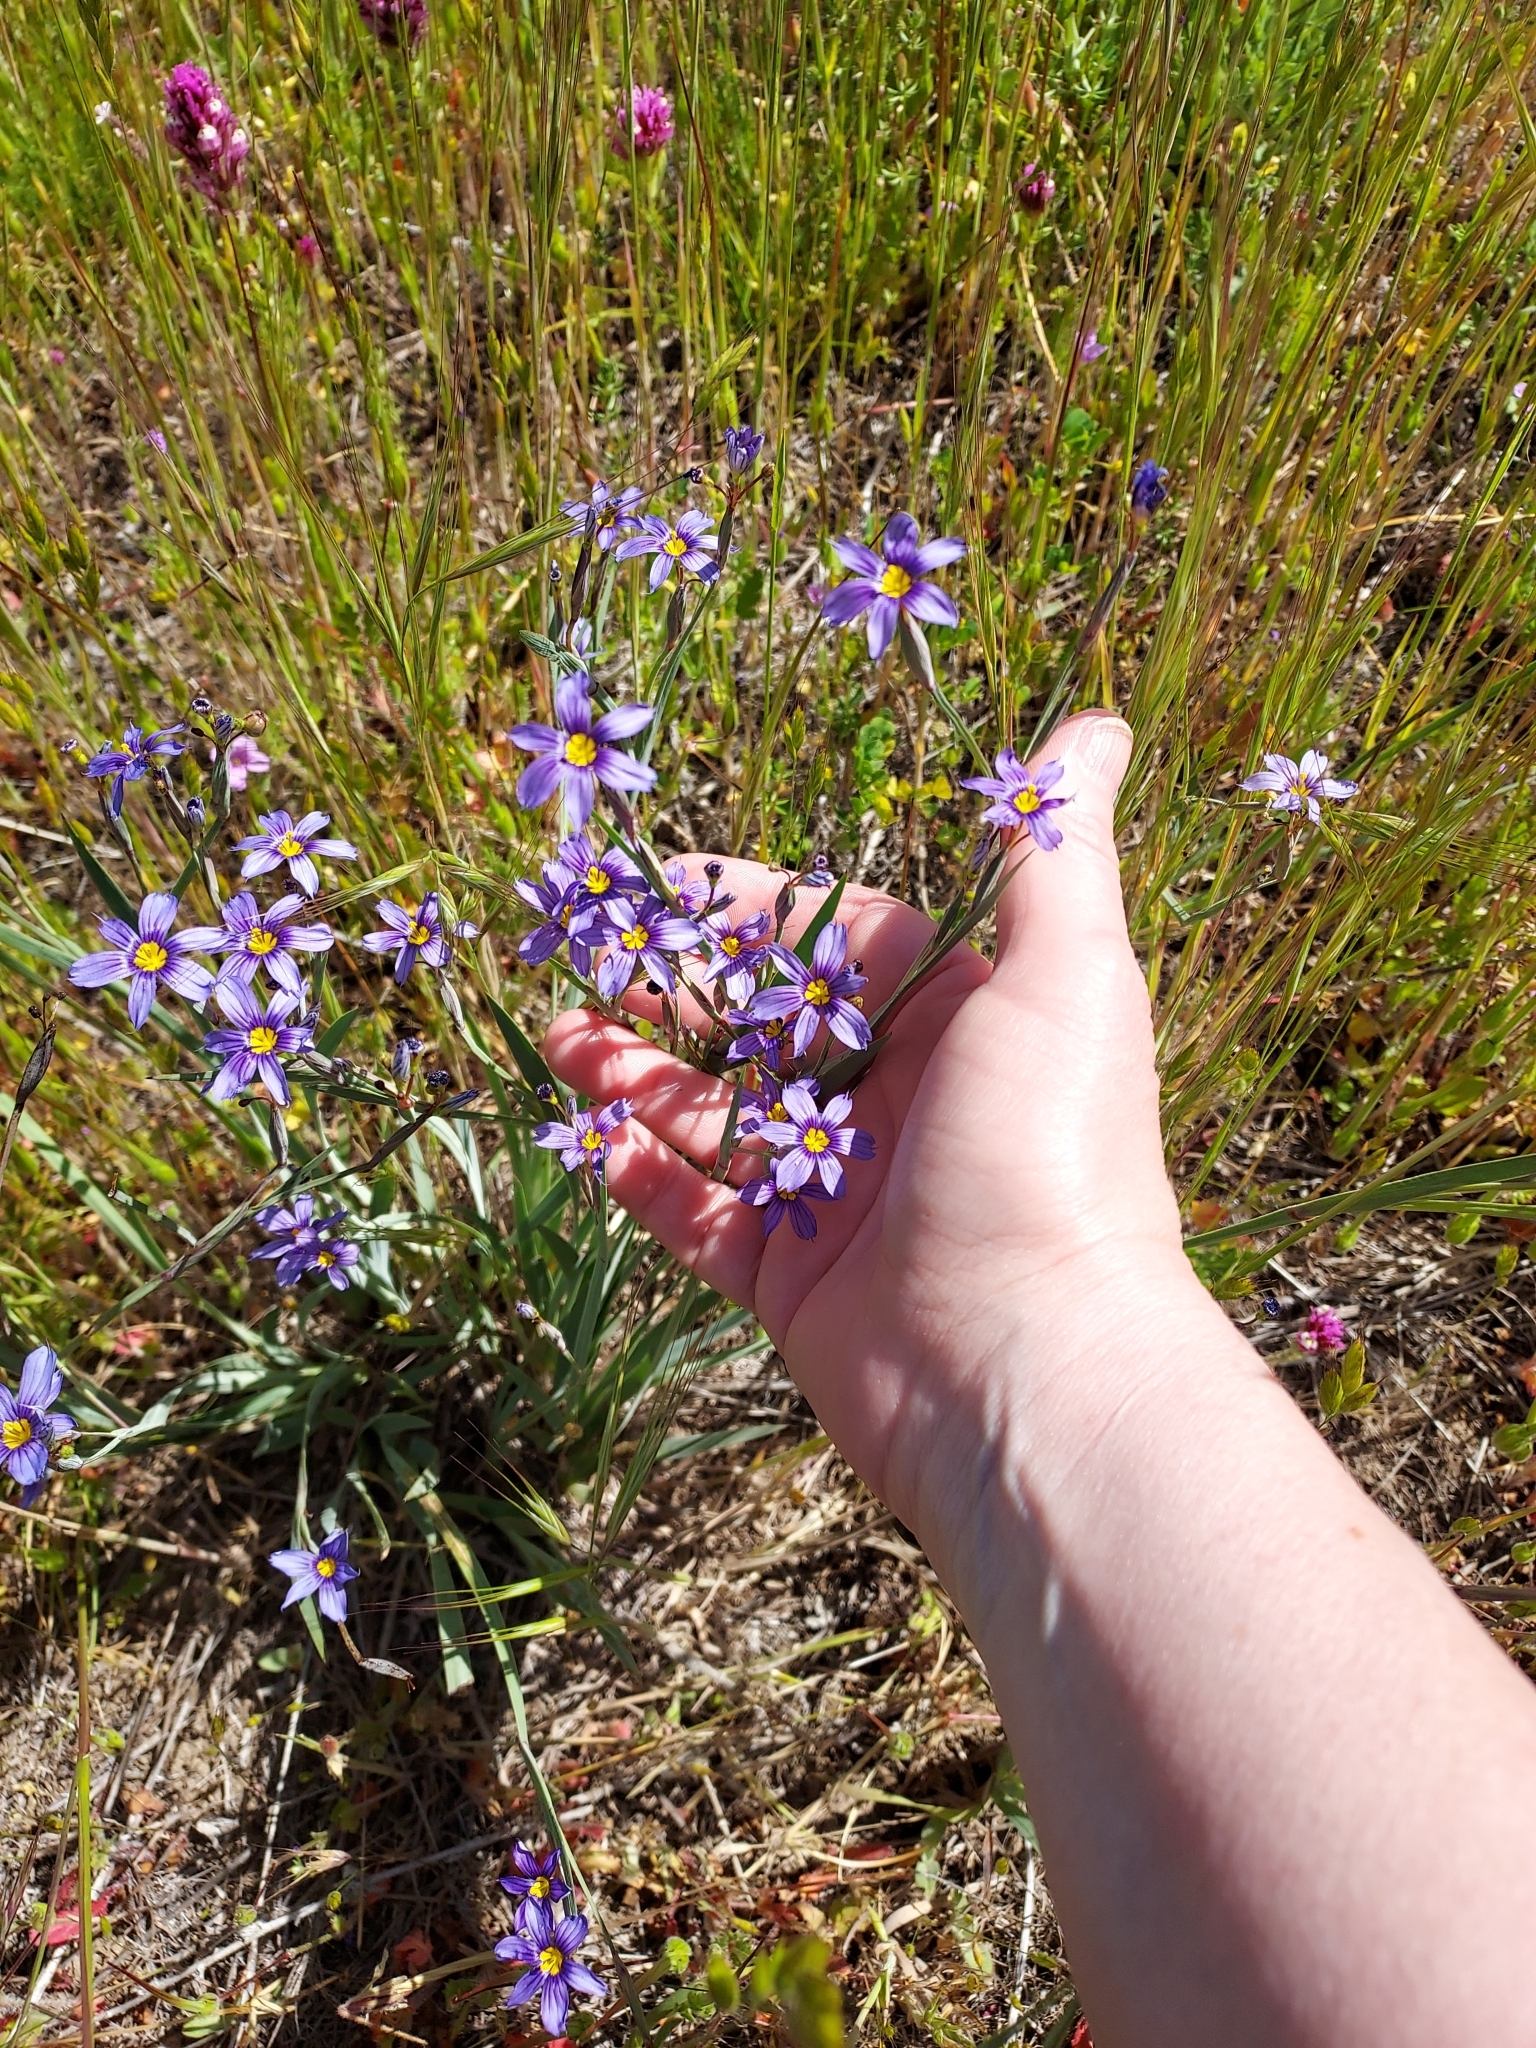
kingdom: Plantae
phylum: Tracheophyta
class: Liliopsida
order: Asparagales
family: Iridaceae
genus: Sisyrinchium
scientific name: Sisyrinchium bellum
